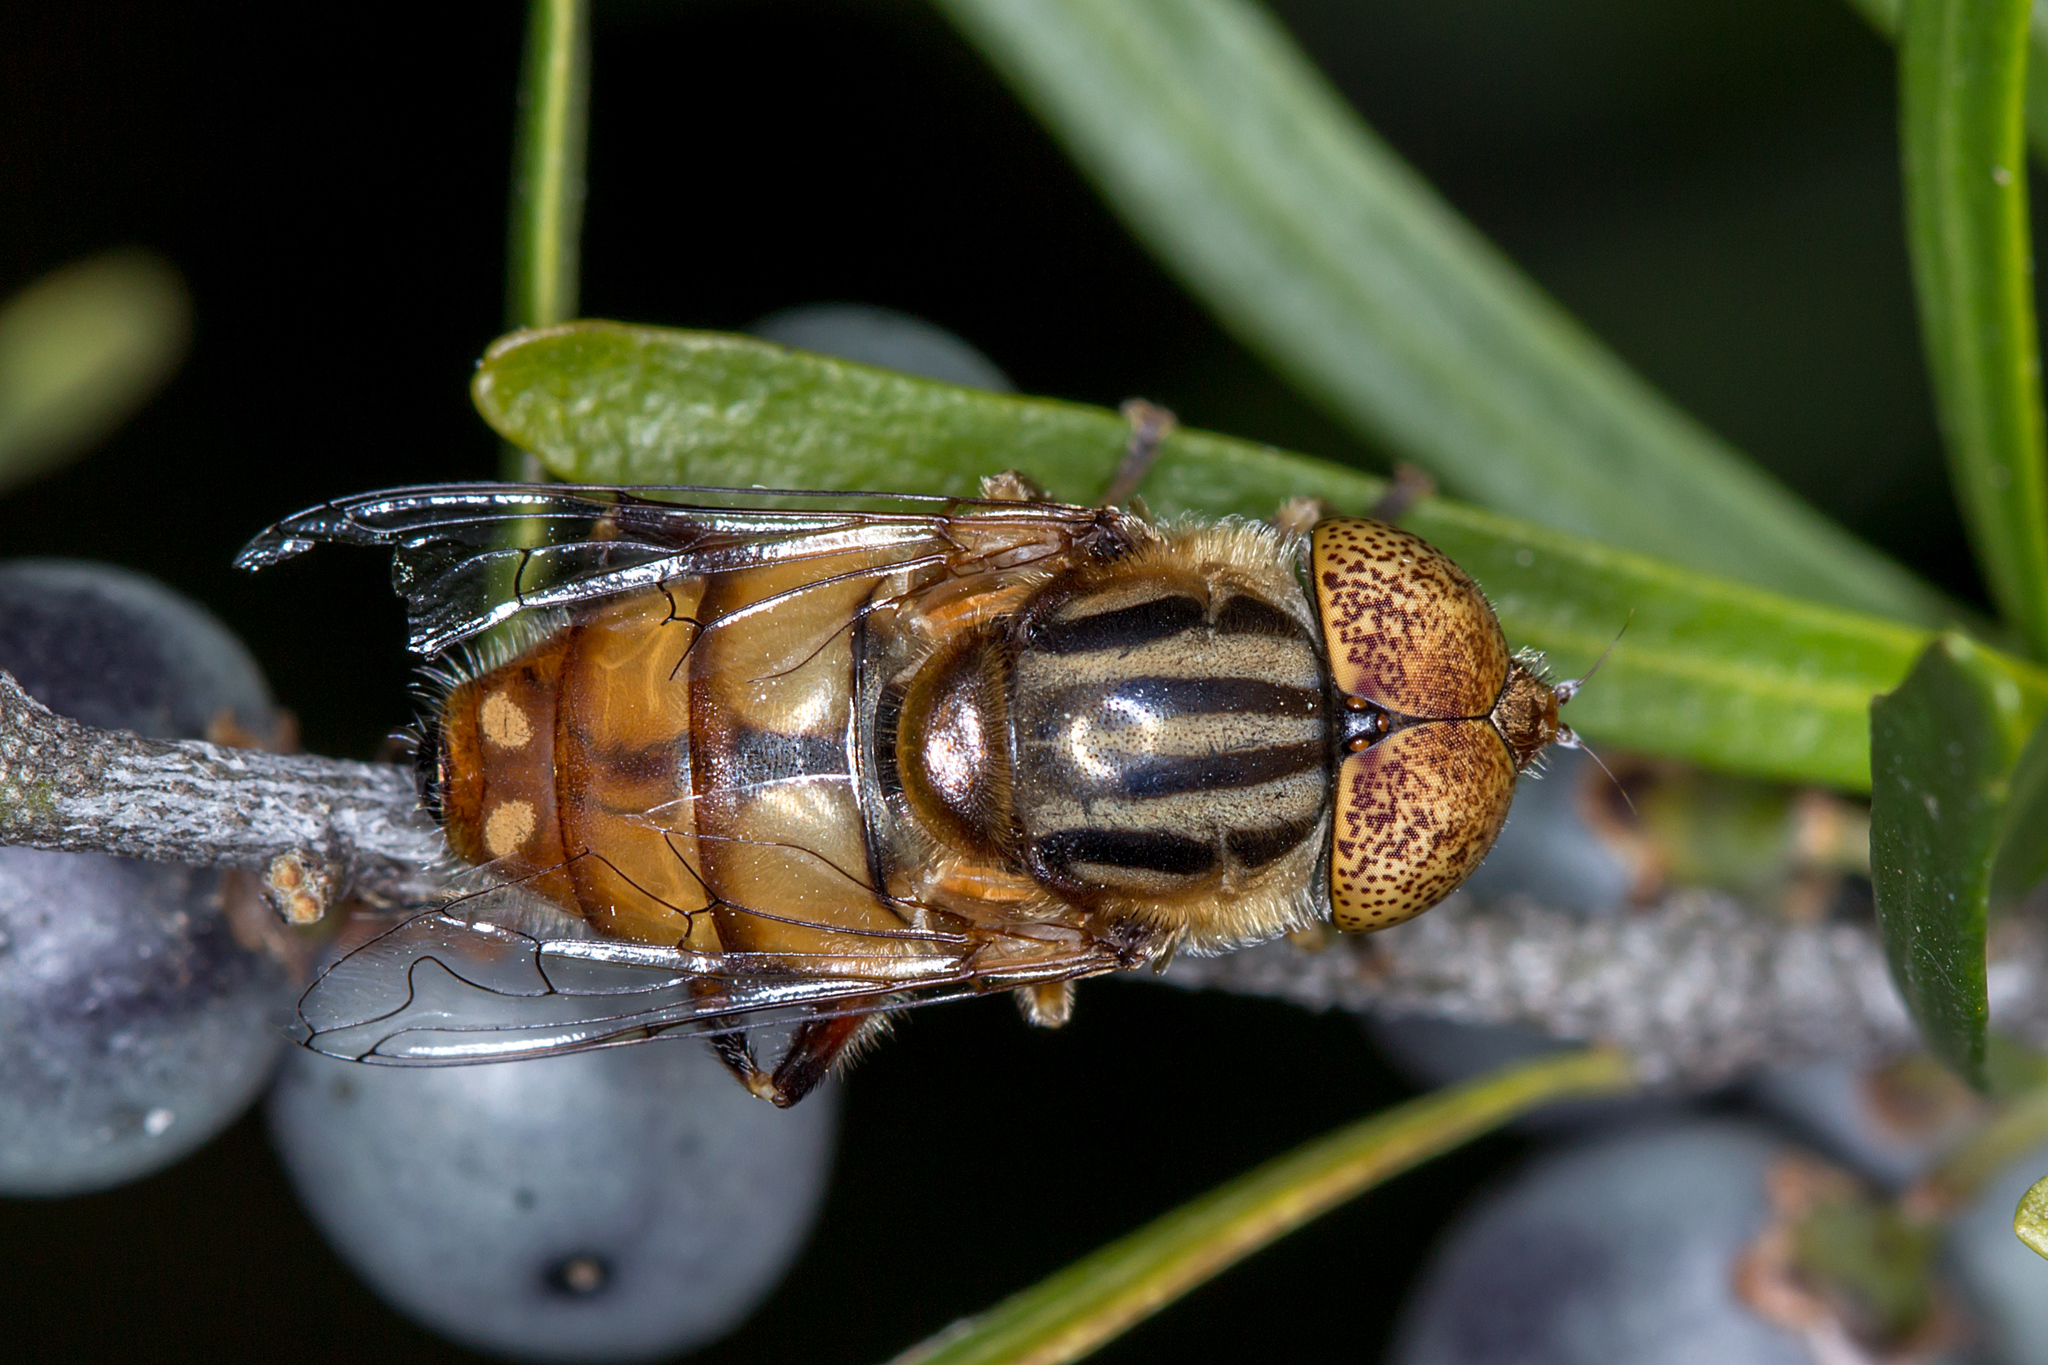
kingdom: Animalia
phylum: Arthropoda
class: Insecta
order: Diptera
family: Syrphidae
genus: Eristalinus
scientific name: Eristalinus punctulatus
